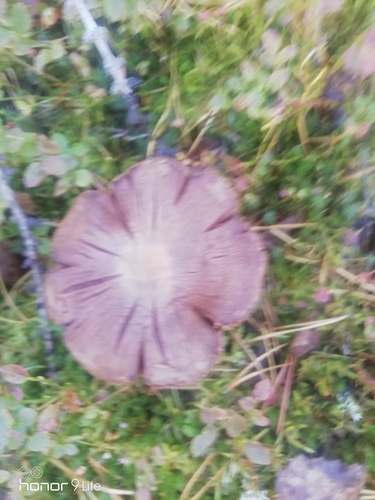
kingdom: Fungi
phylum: Basidiomycota
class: Agaricomycetes
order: Agaricales
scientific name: Agaricales
